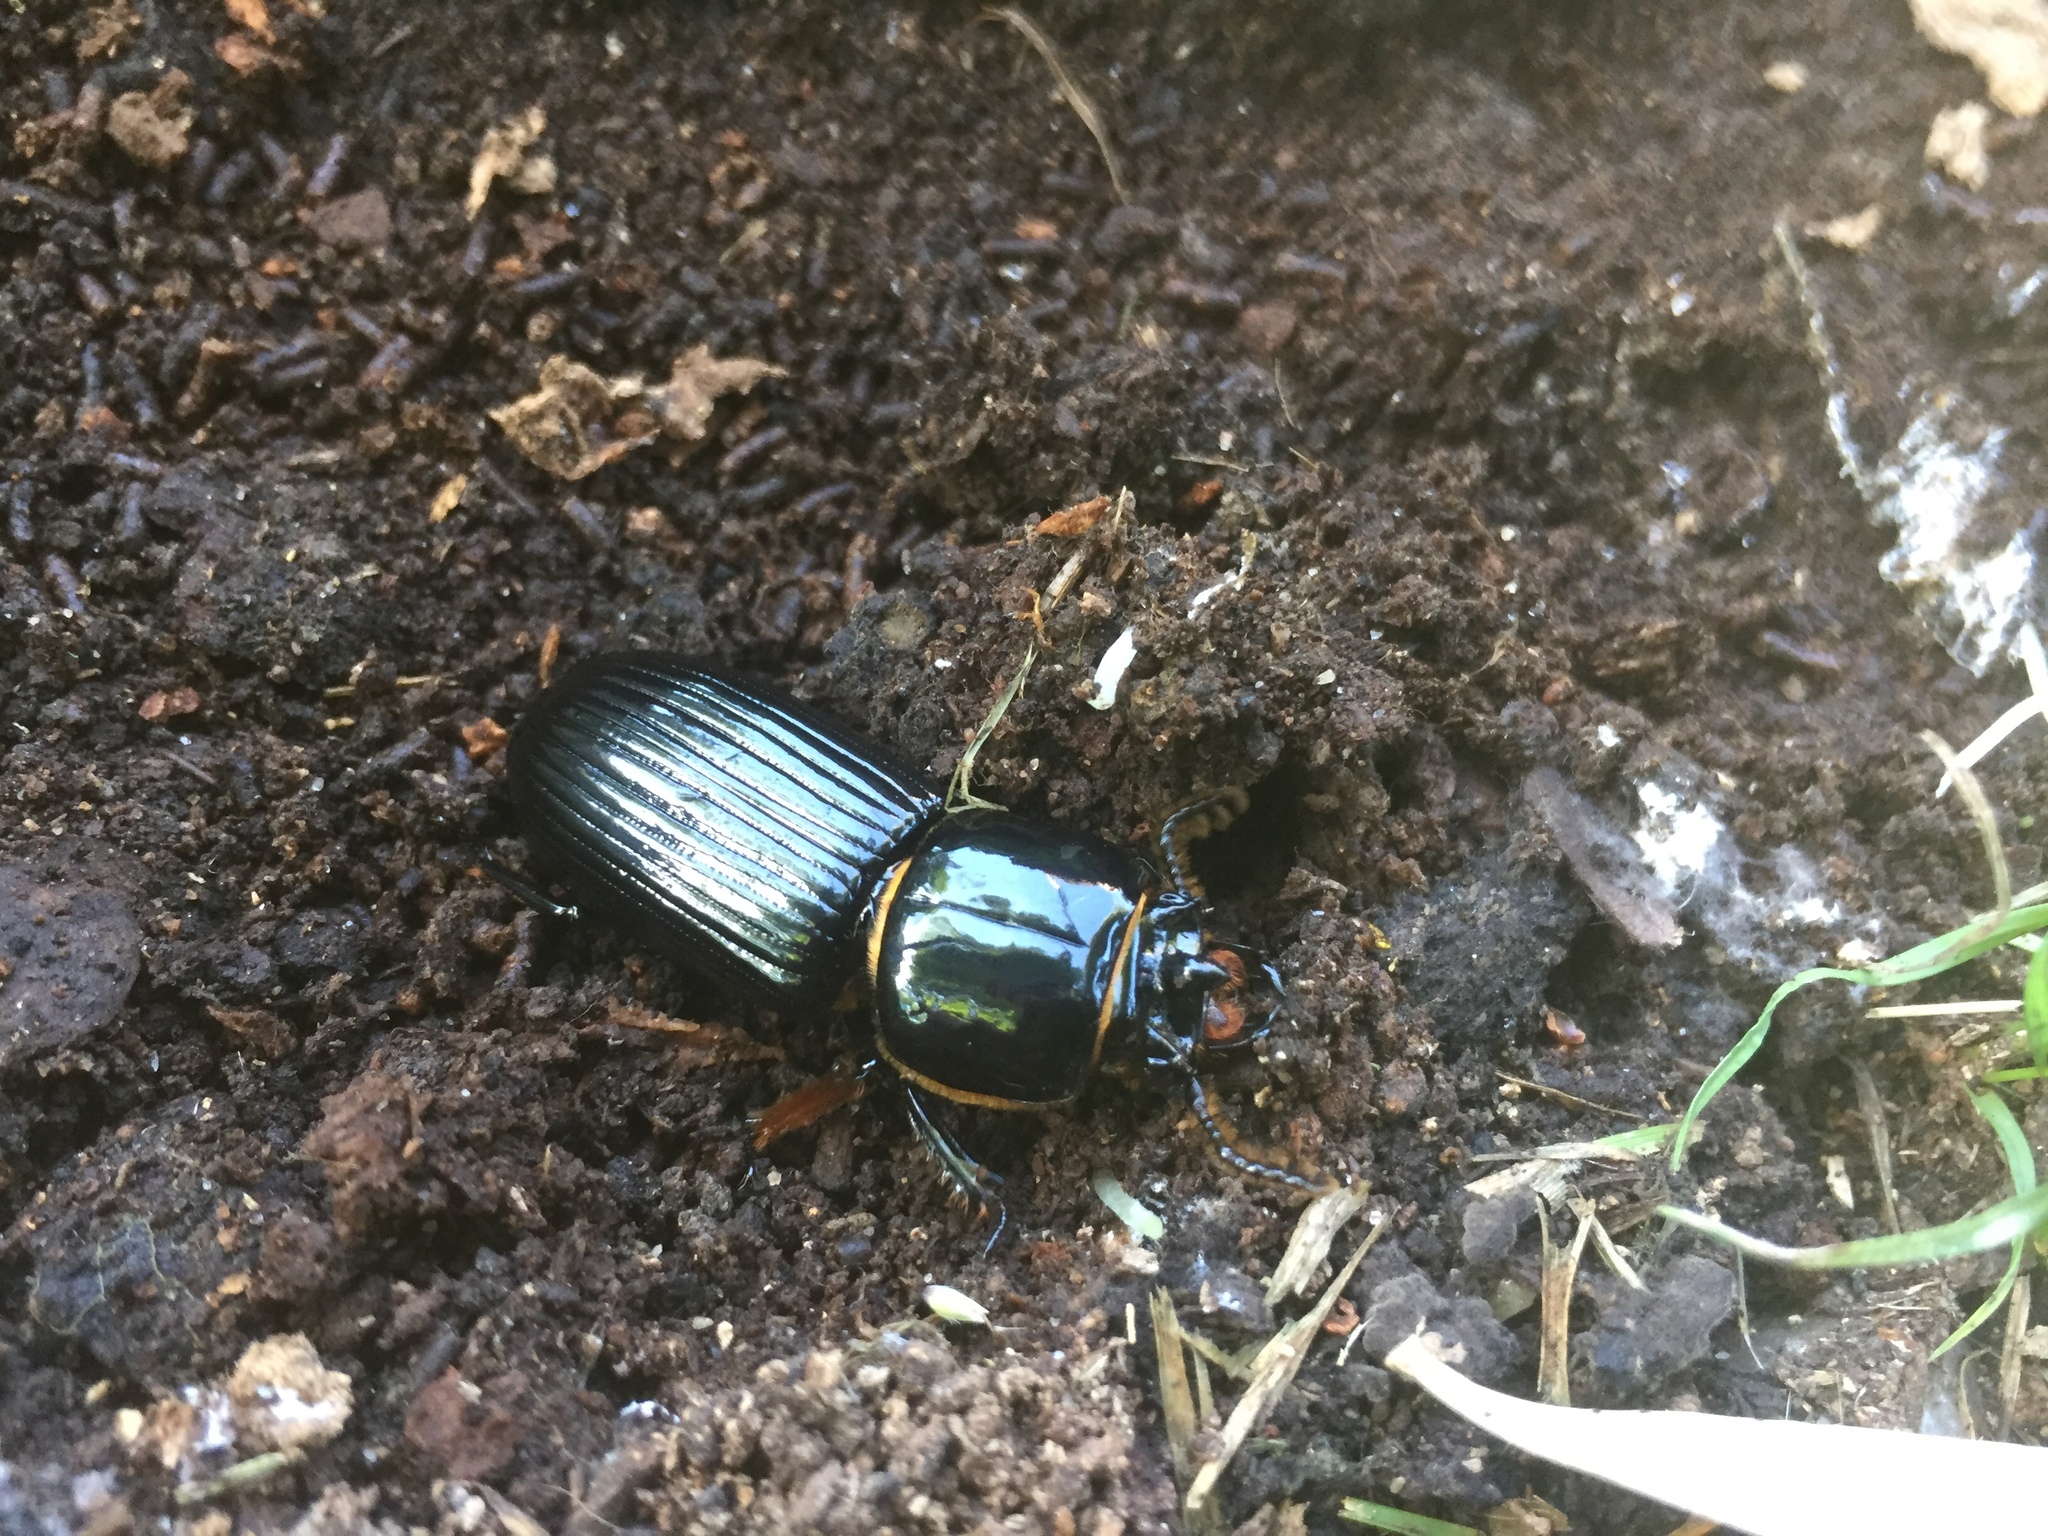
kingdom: Animalia
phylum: Arthropoda
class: Insecta
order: Coleoptera
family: Passalidae
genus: Odontotaenius
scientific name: Odontotaenius disjunctus
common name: Patent leather beetle
